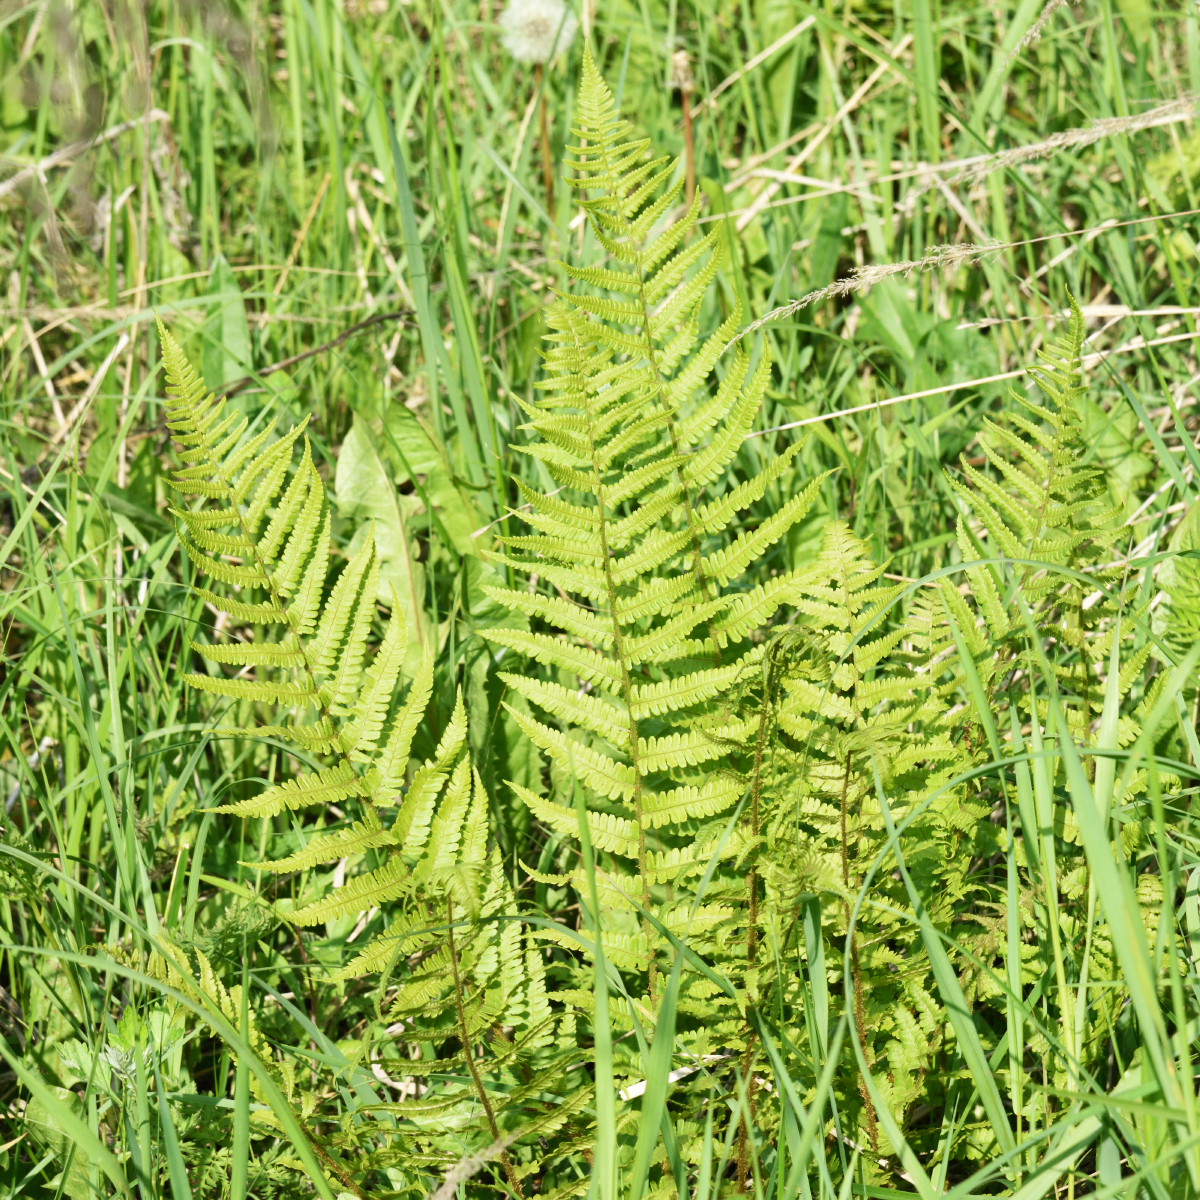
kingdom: Plantae
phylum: Tracheophyta
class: Polypodiopsida
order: Polypodiales
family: Dryopteridaceae
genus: Dryopteris
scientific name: Dryopteris filix-mas
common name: Male fern
